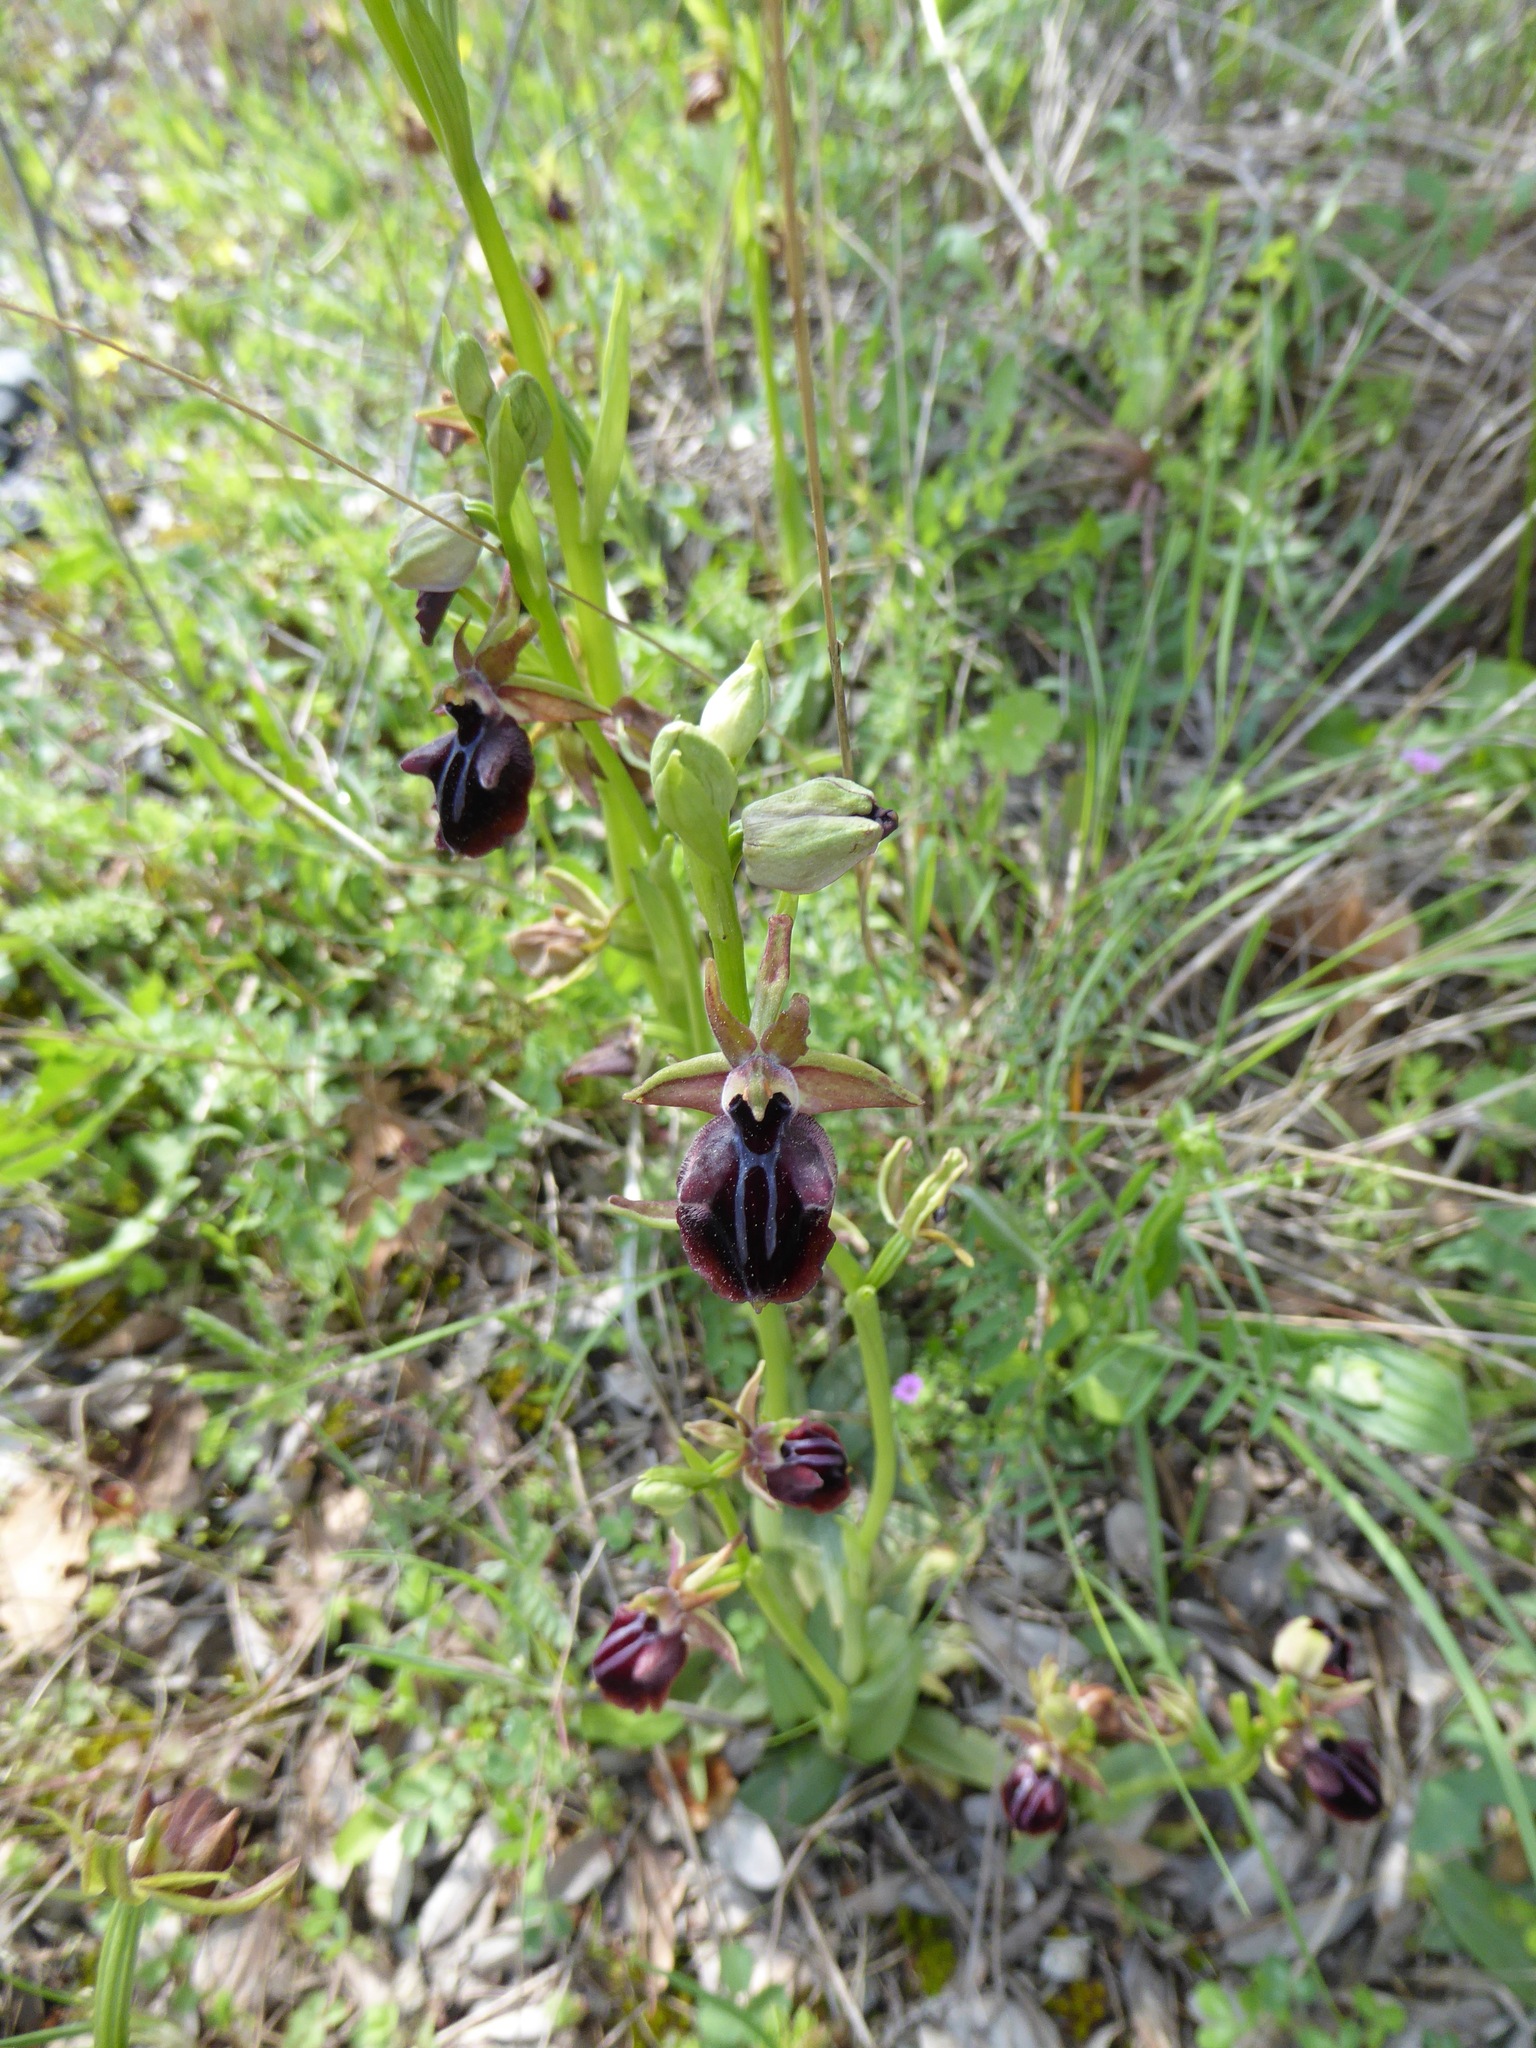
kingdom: Plantae
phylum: Tracheophyta
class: Liliopsida
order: Asparagales
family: Orchidaceae
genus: Ophrys
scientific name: Ophrys sphegodes
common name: Early spider-orchid
